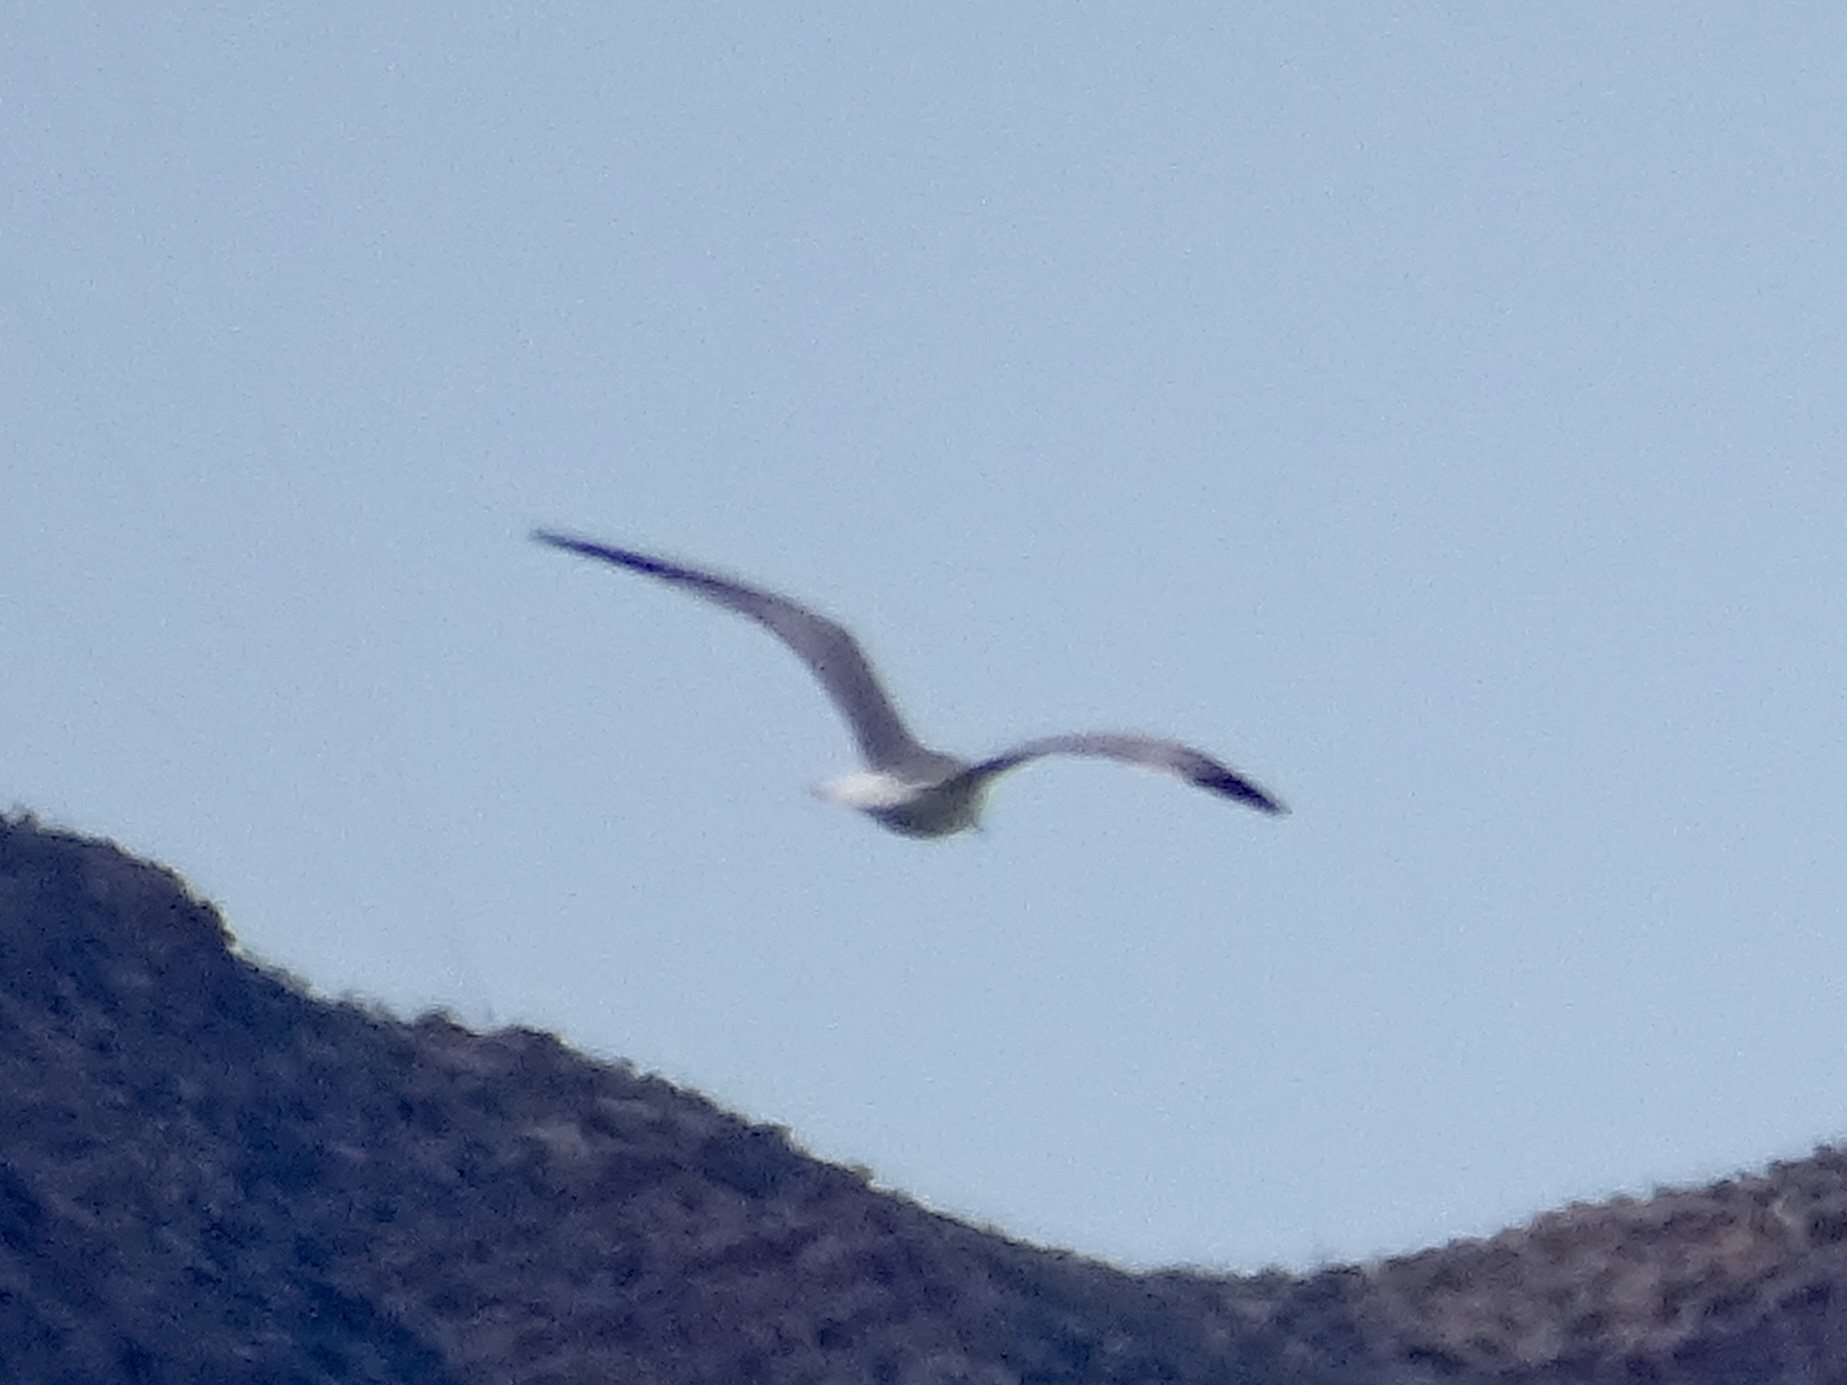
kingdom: Animalia
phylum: Chordata
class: Aves
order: Charadriiformes
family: Laridae
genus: Larus
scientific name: Larus delawarensis
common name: Ring-billed gull
